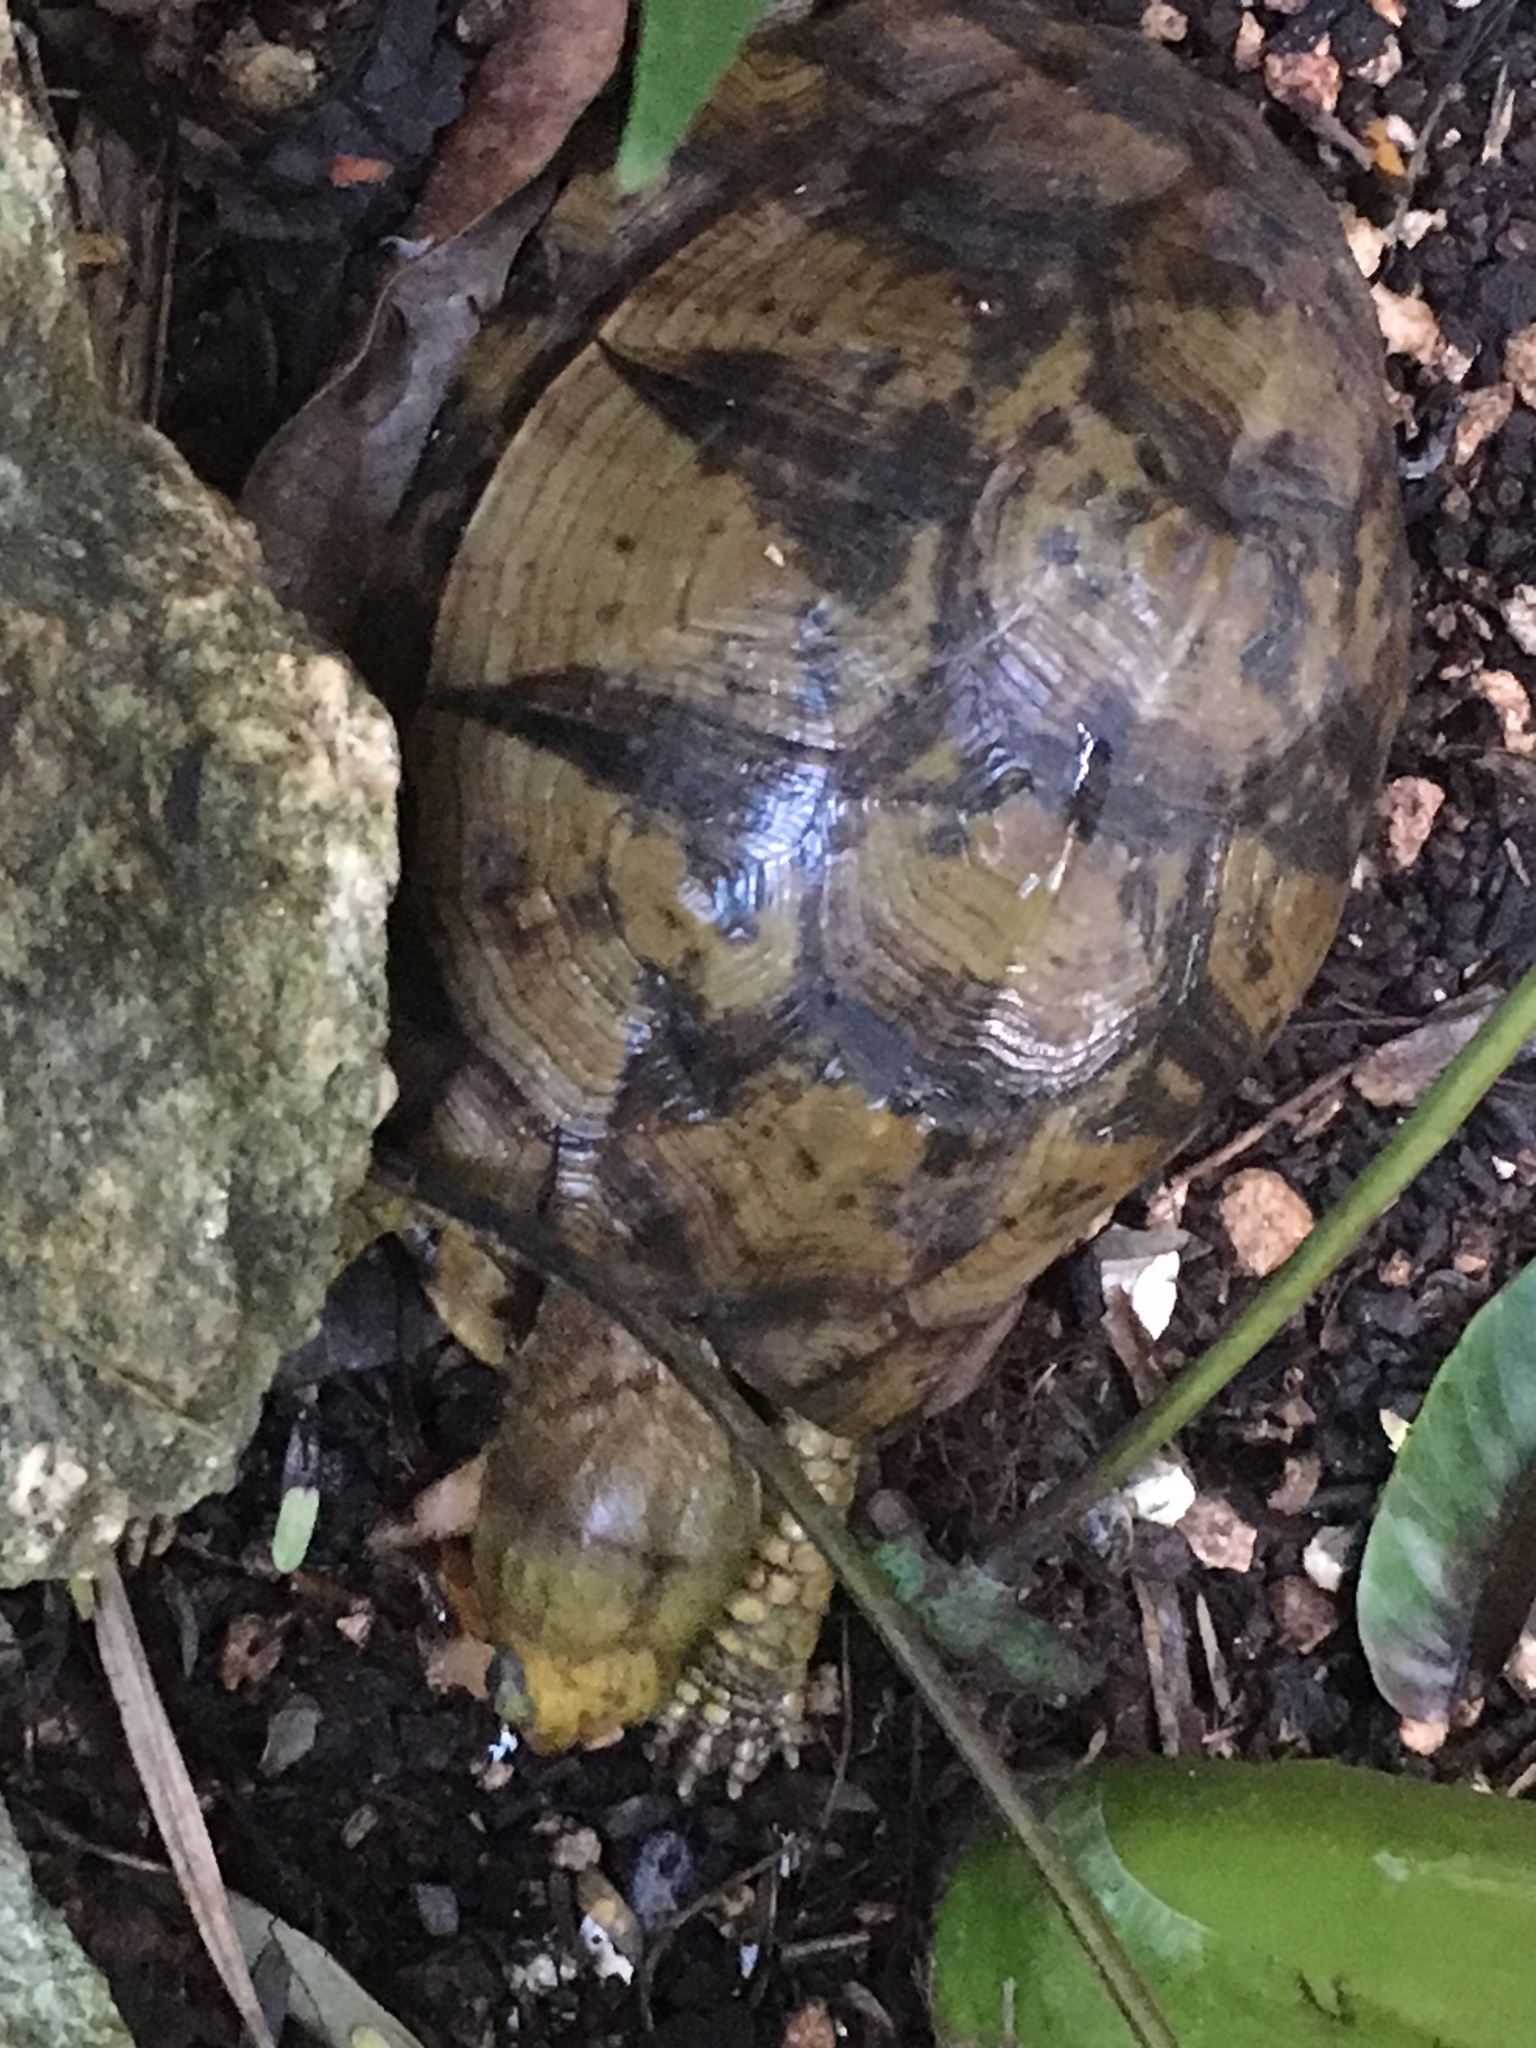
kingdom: Animalia
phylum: Chordata
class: Testudines
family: Emydidae
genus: Terrapene
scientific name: Terrapene yucatana
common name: Yucatan box turtle
